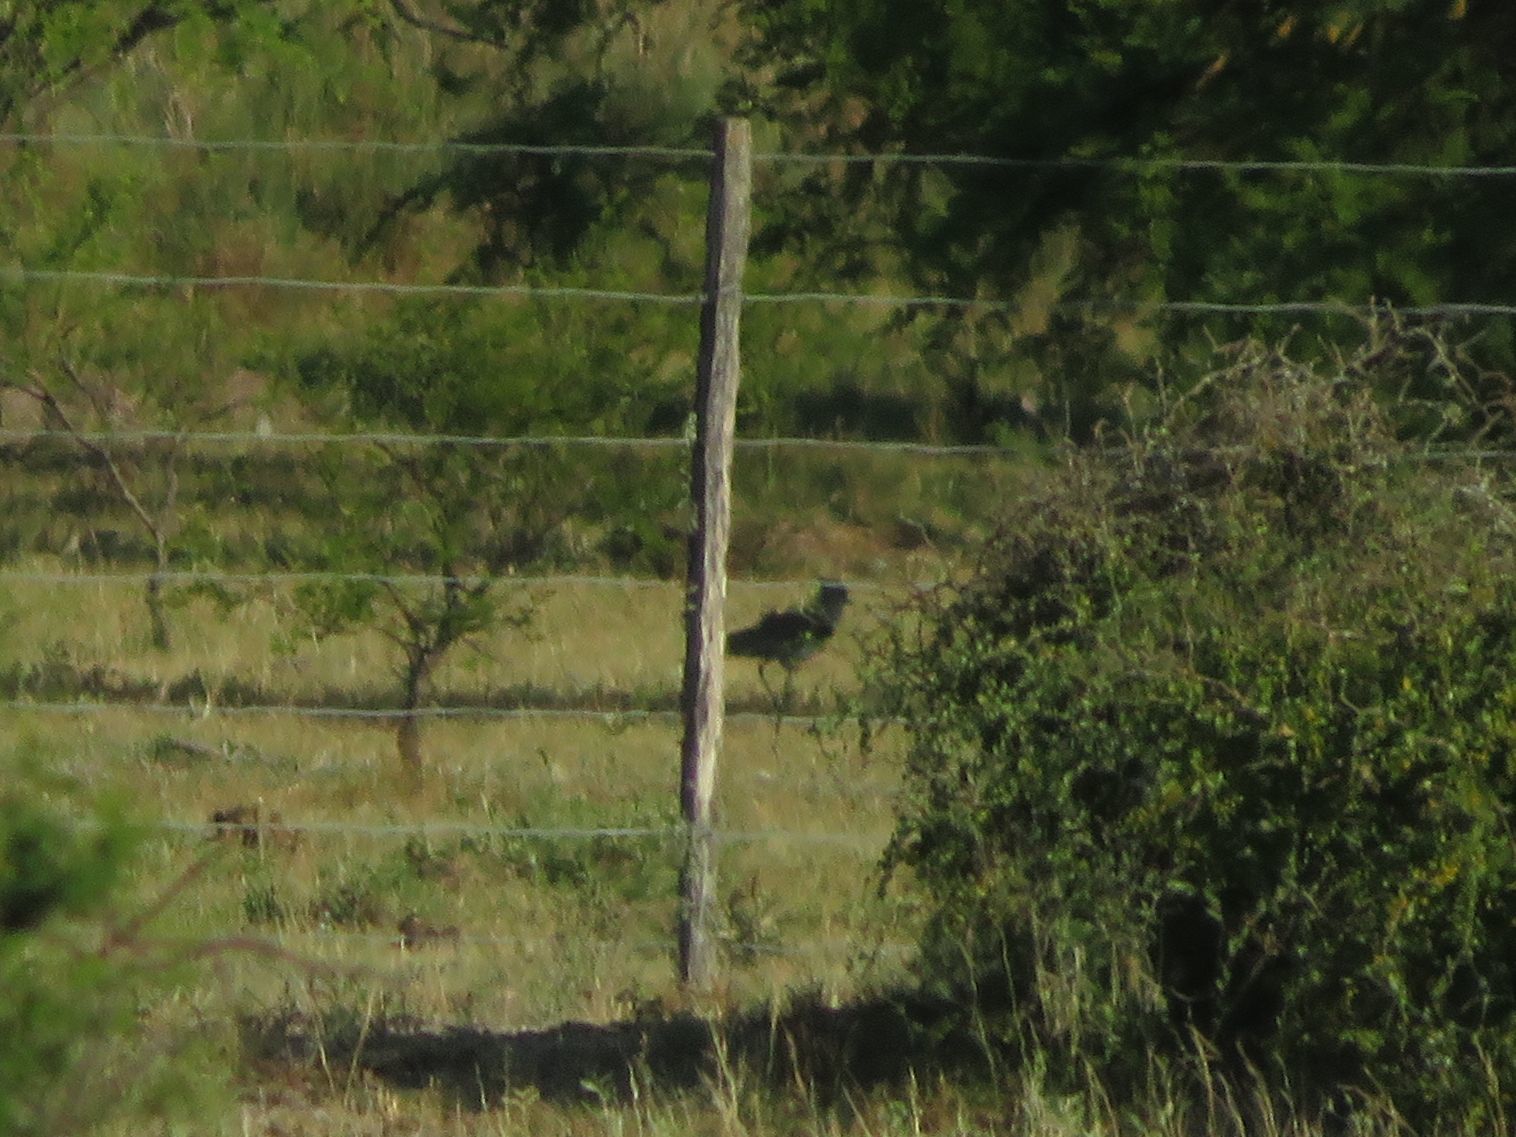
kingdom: Animalia
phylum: Chordata
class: Aves
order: Charadriiformes
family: Charadriidae
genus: Vanellus
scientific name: Vanellus chilensis
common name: Southern lapwing
